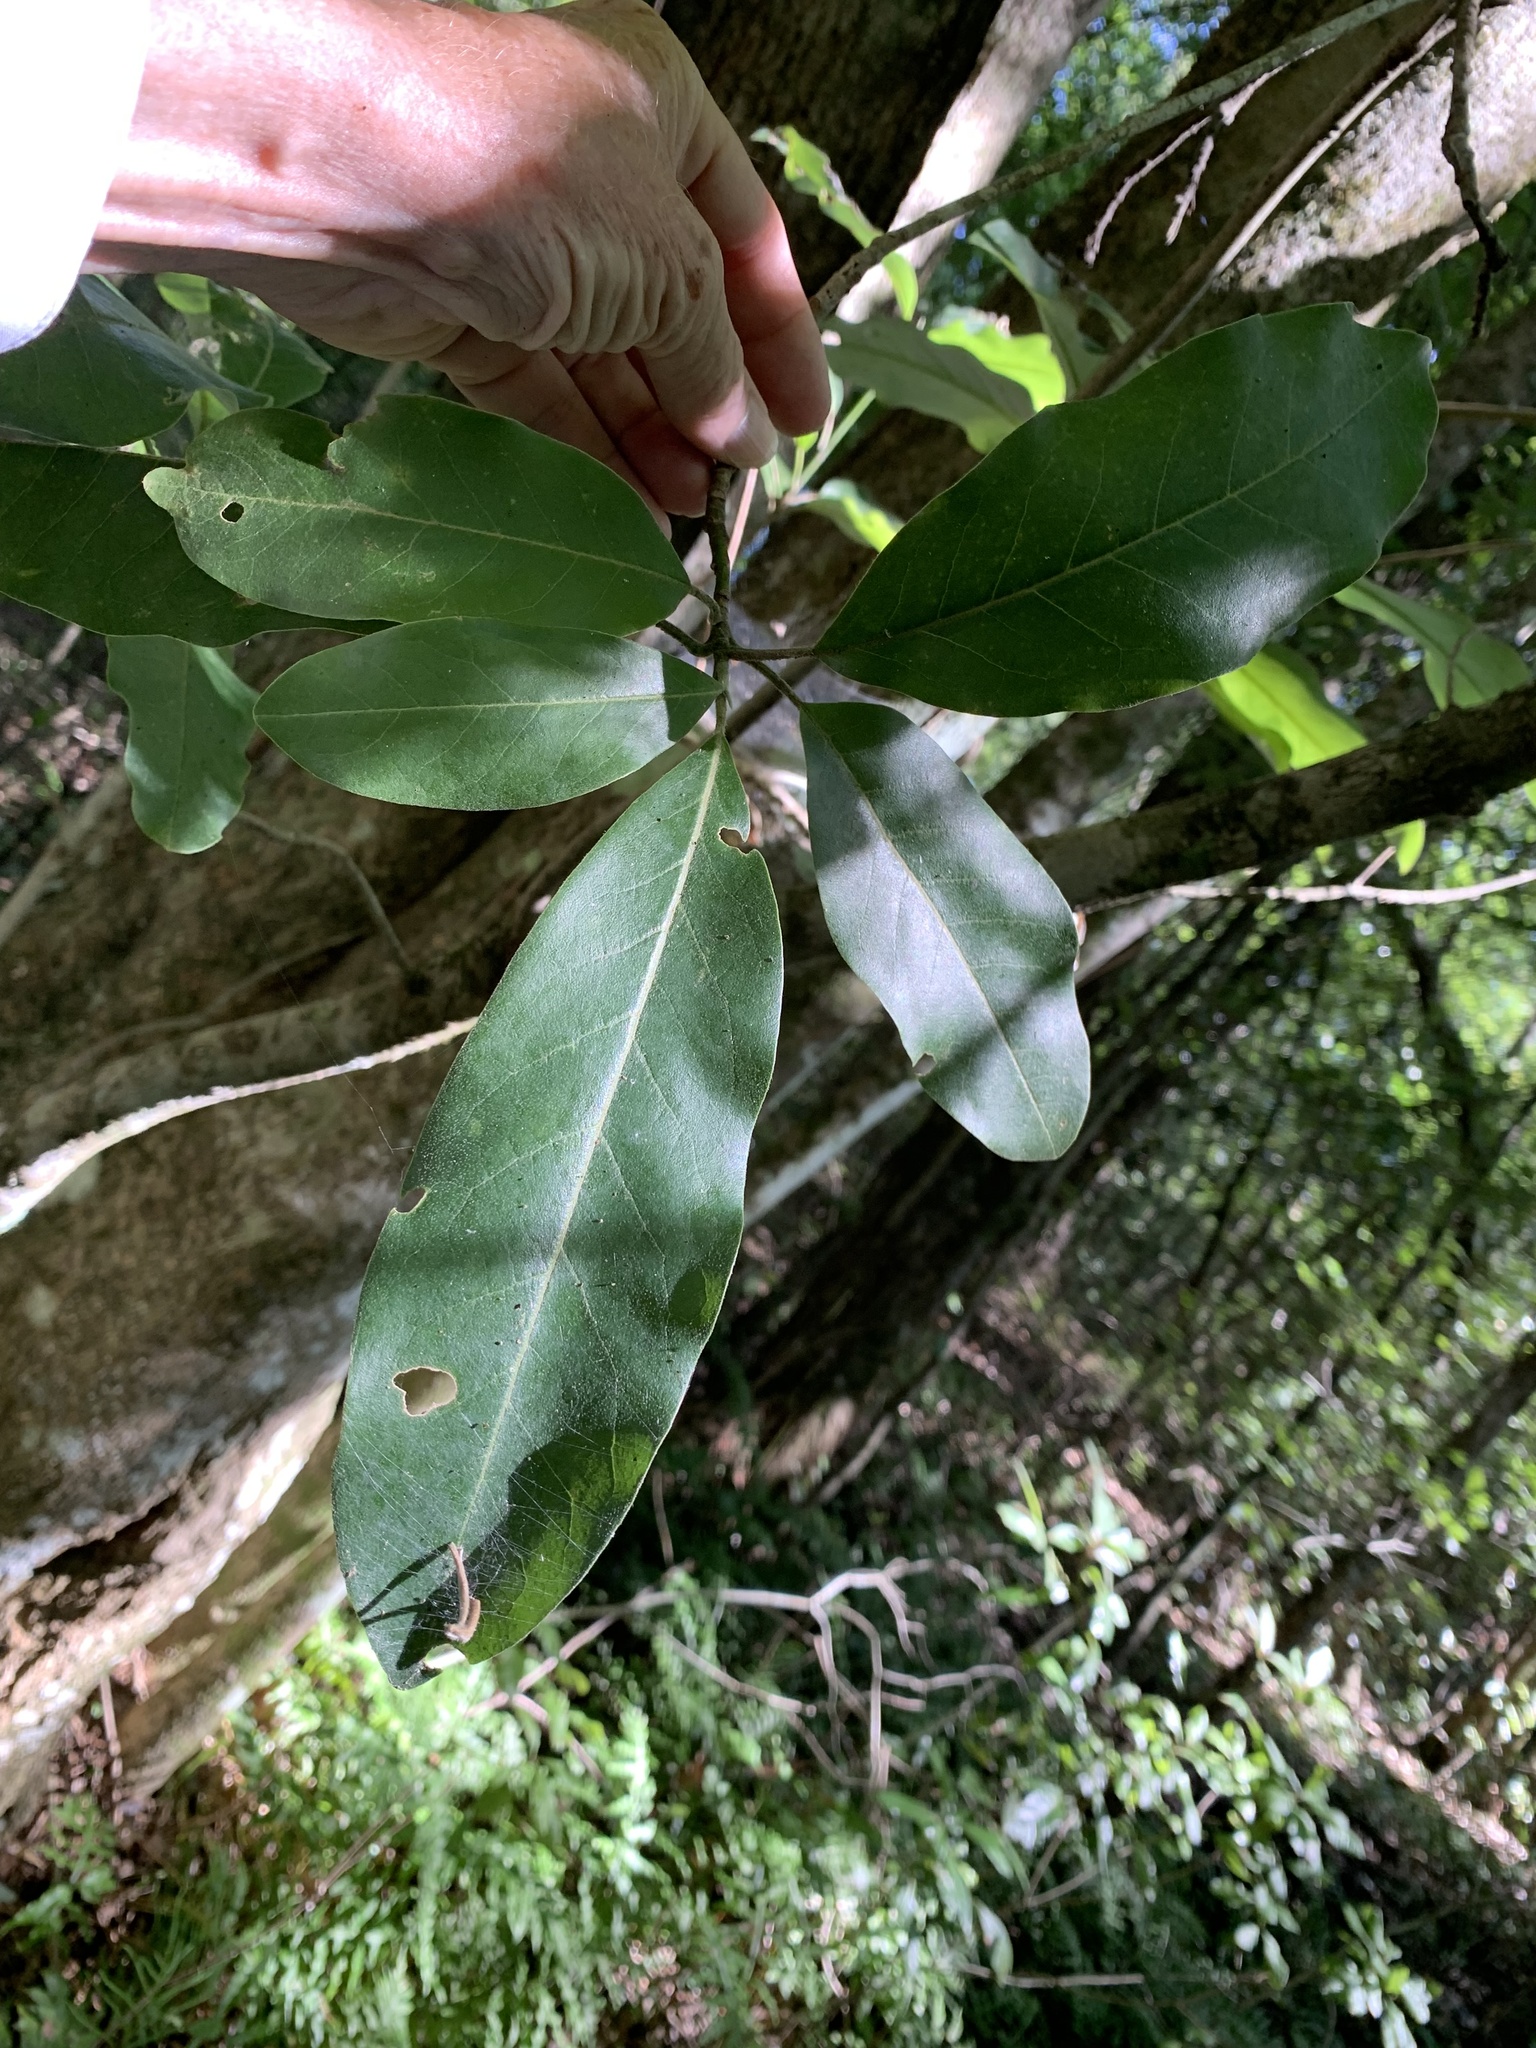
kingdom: Plantae
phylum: Tracheophyta
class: Magnoliopsida
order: Magnoliales
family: Magnoliaceae
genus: Magnolia
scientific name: Magnolia virginiana
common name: Swamp bay
